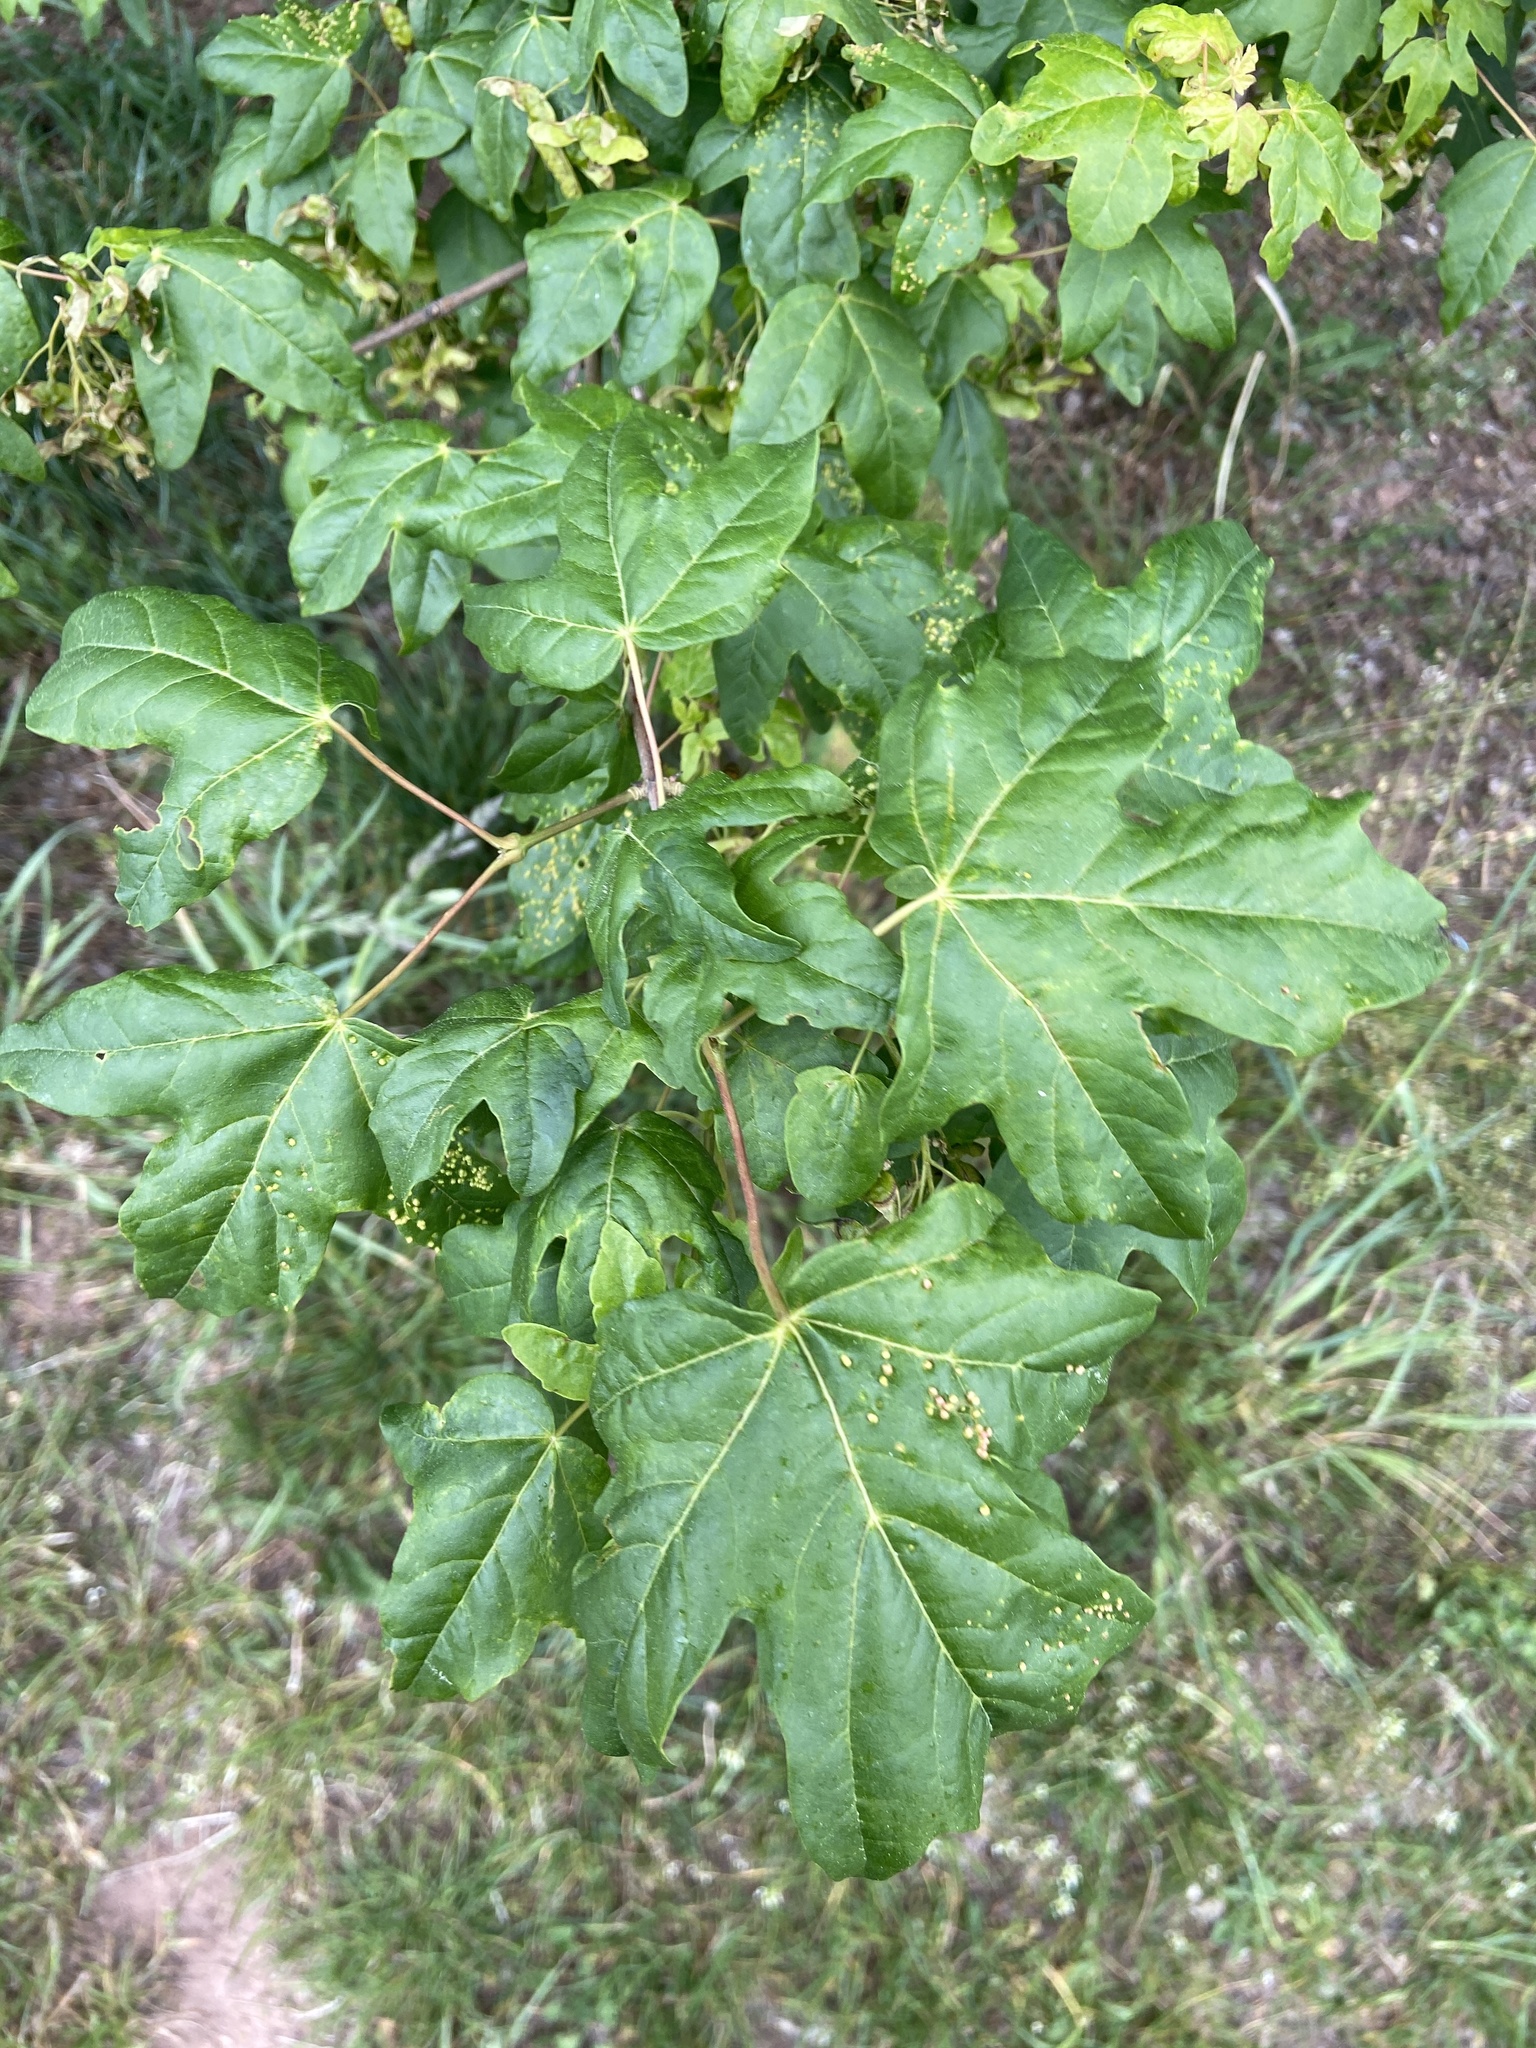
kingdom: Animalia
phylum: Arthropoda
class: Arachnida
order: Trombidiformes
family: Eriophyidae
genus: Aceria
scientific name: Aceria myriadeum
